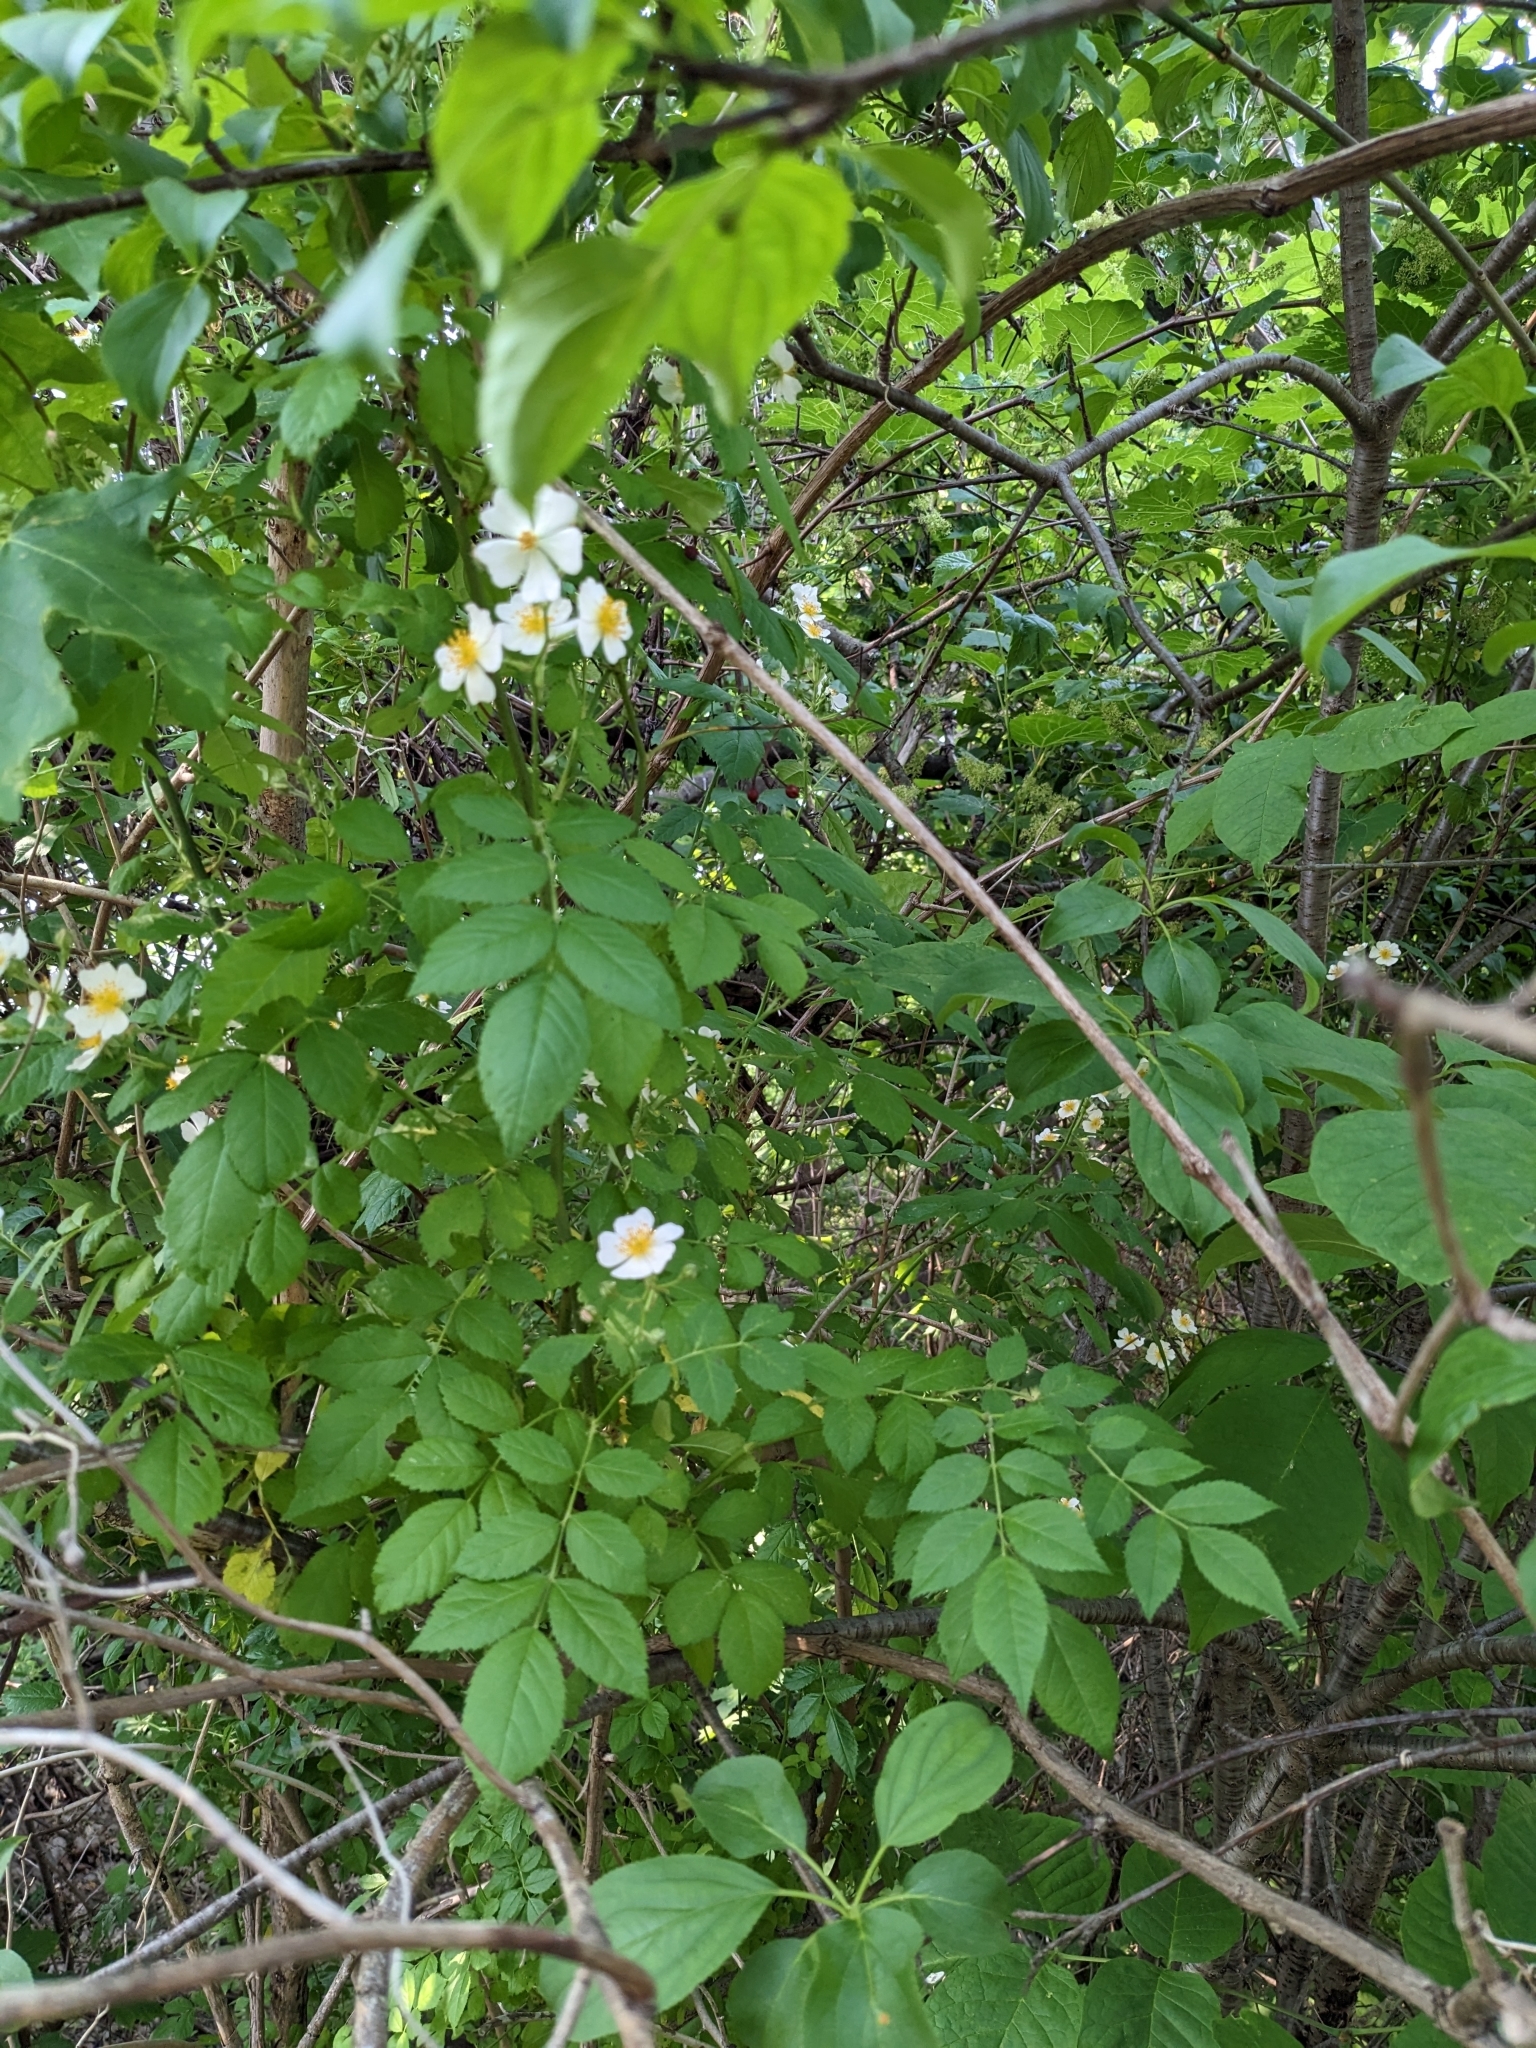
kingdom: Plantae
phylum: Tracheophyta
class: Magnoliopsida
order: Rosales
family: Rosaceae
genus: Rosa
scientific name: Rosa multiflora
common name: Multiflora rose
